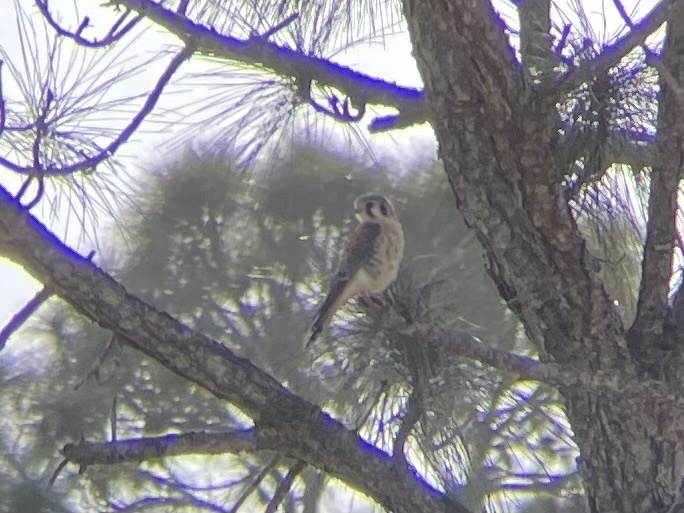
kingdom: Animalia
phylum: Chordata
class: Aves
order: Falconiformes
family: Falconidae
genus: Falco
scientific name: Falco sparverius
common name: American kestrel
